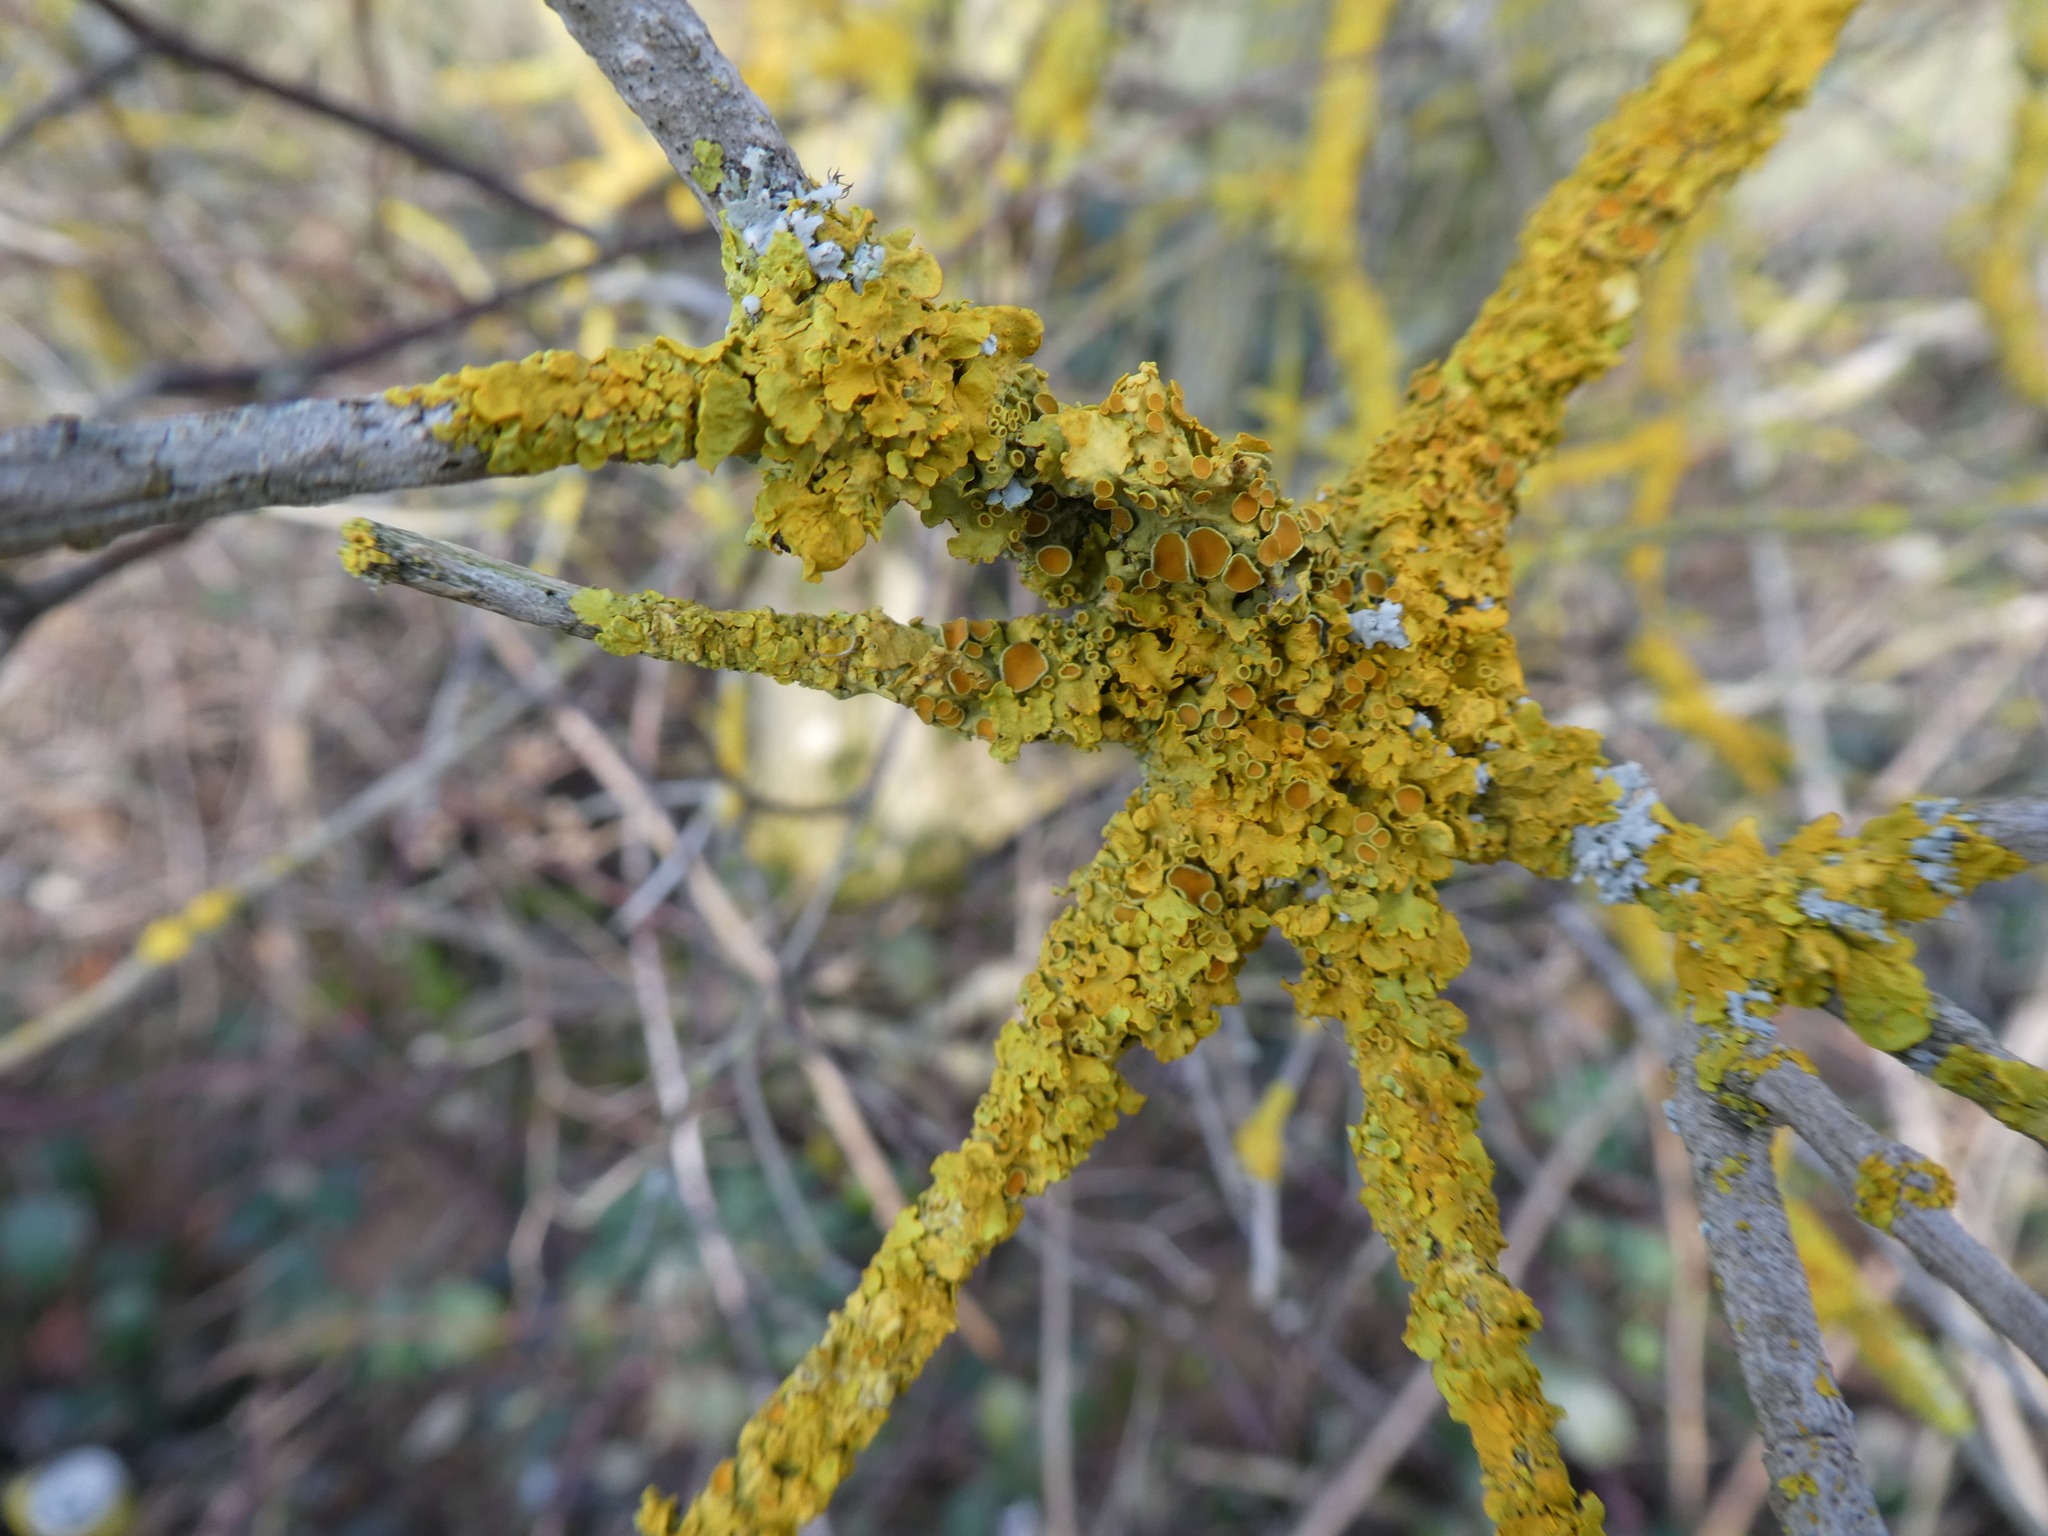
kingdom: Fungi
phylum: Ascomycota
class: Lecanoromycetes
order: Teloschistales
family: Teloschistaceae
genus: Xanthoria
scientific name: Xanthoria parietina
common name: Common orange lichen
